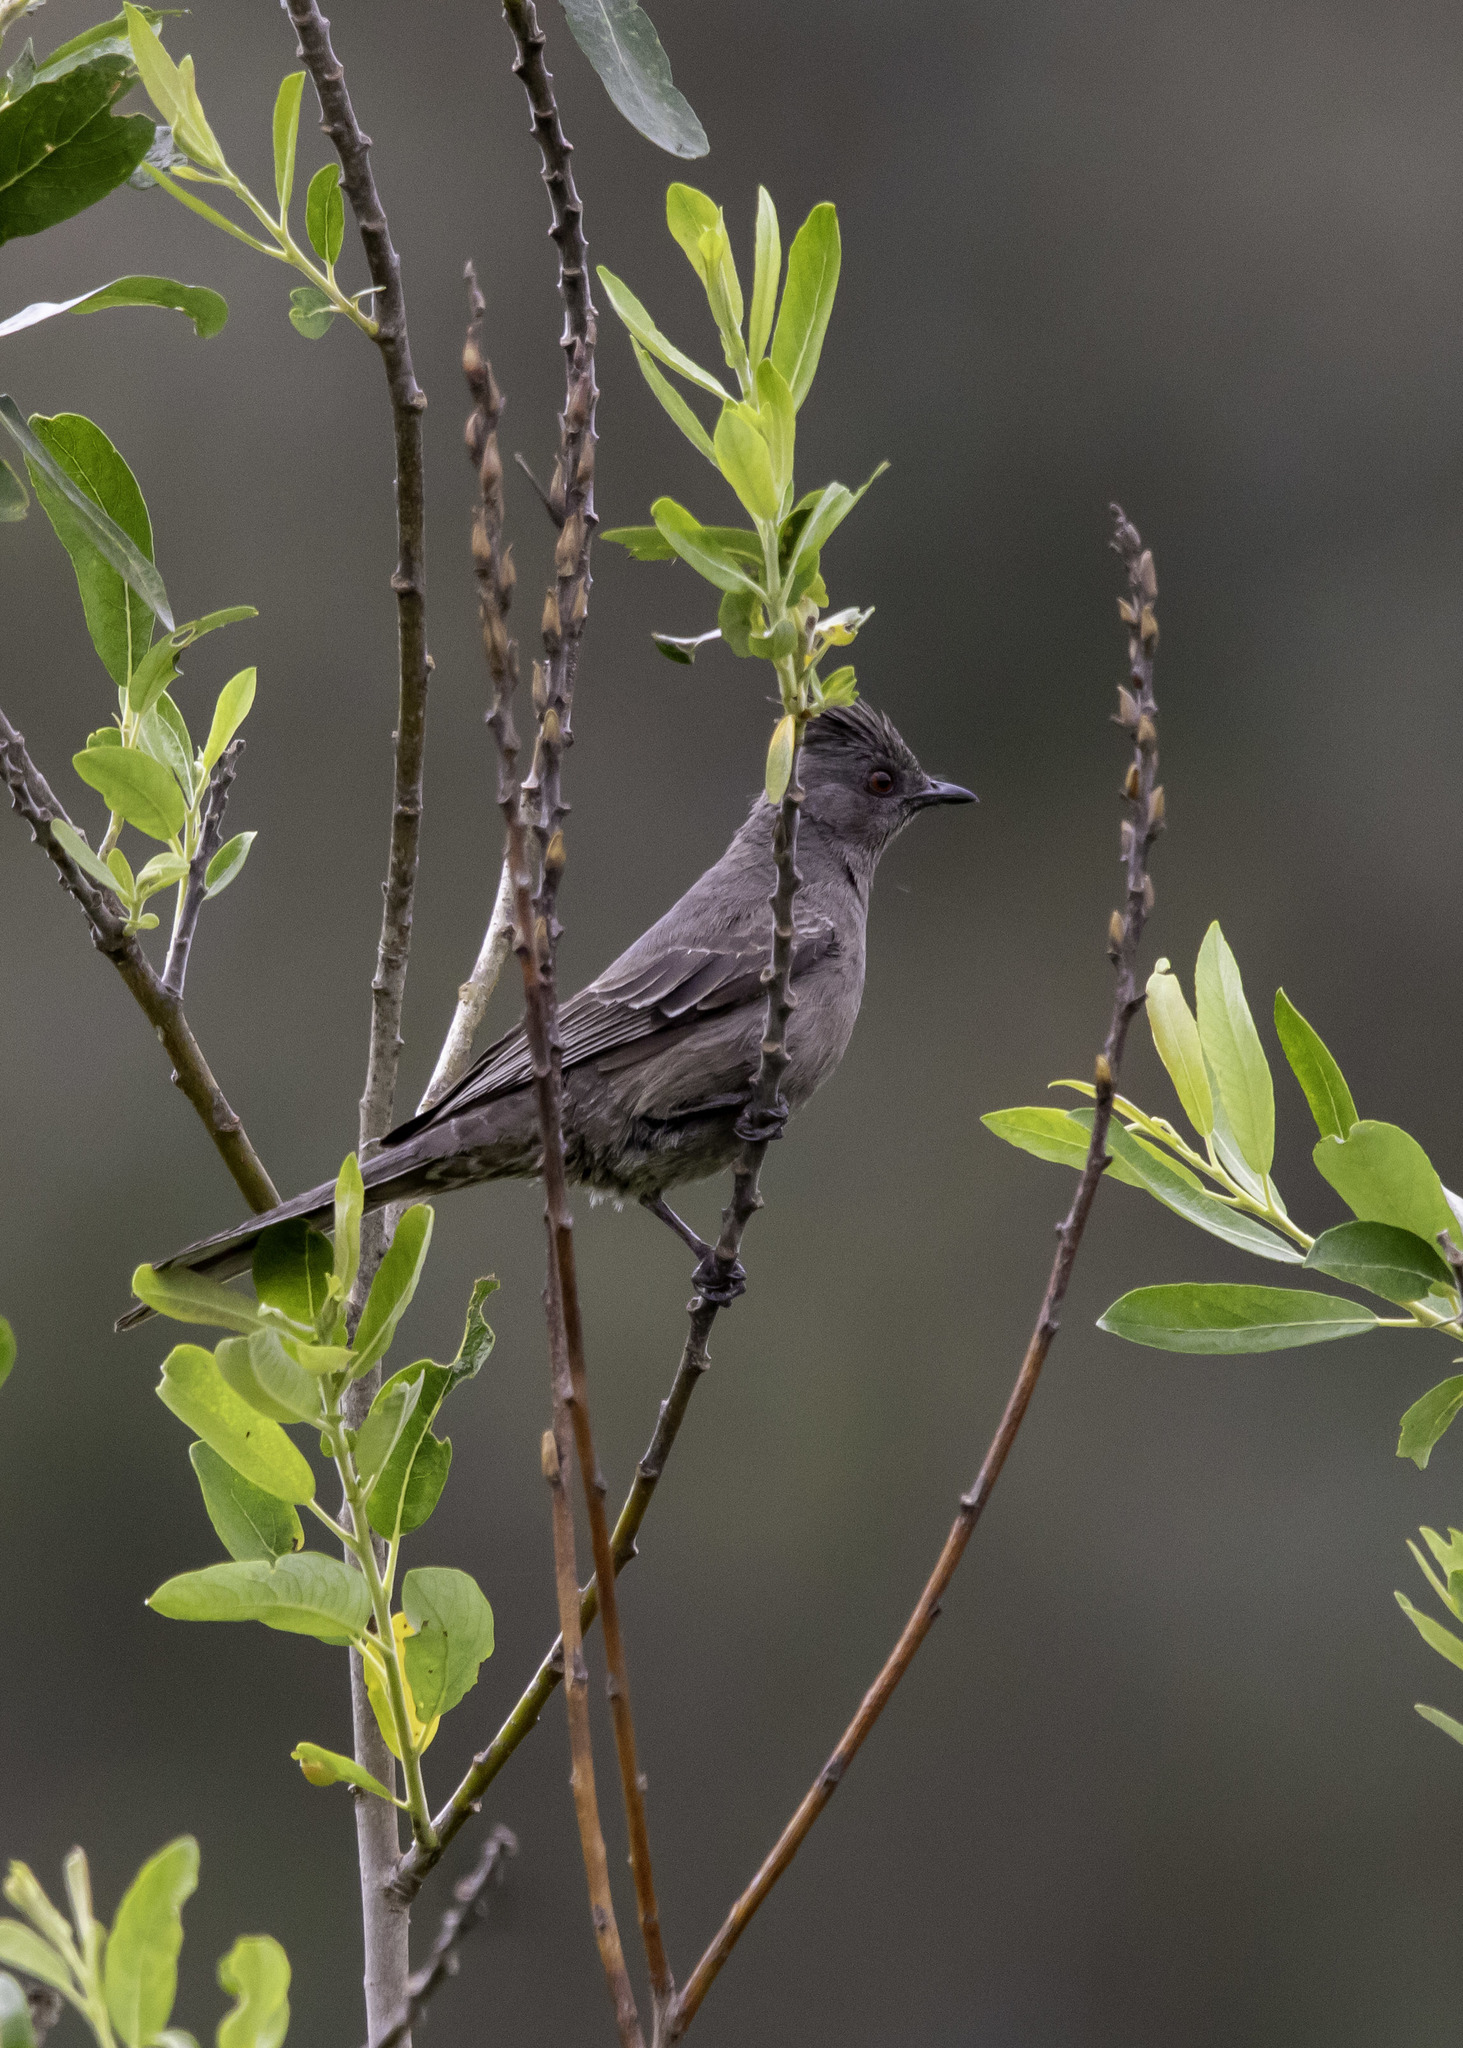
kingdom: Animalia
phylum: Chordata
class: Aves
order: Passeriformes
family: Ptilogonatidae
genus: Phainopepla
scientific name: Phainopepla nitens
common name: Phainopepla
